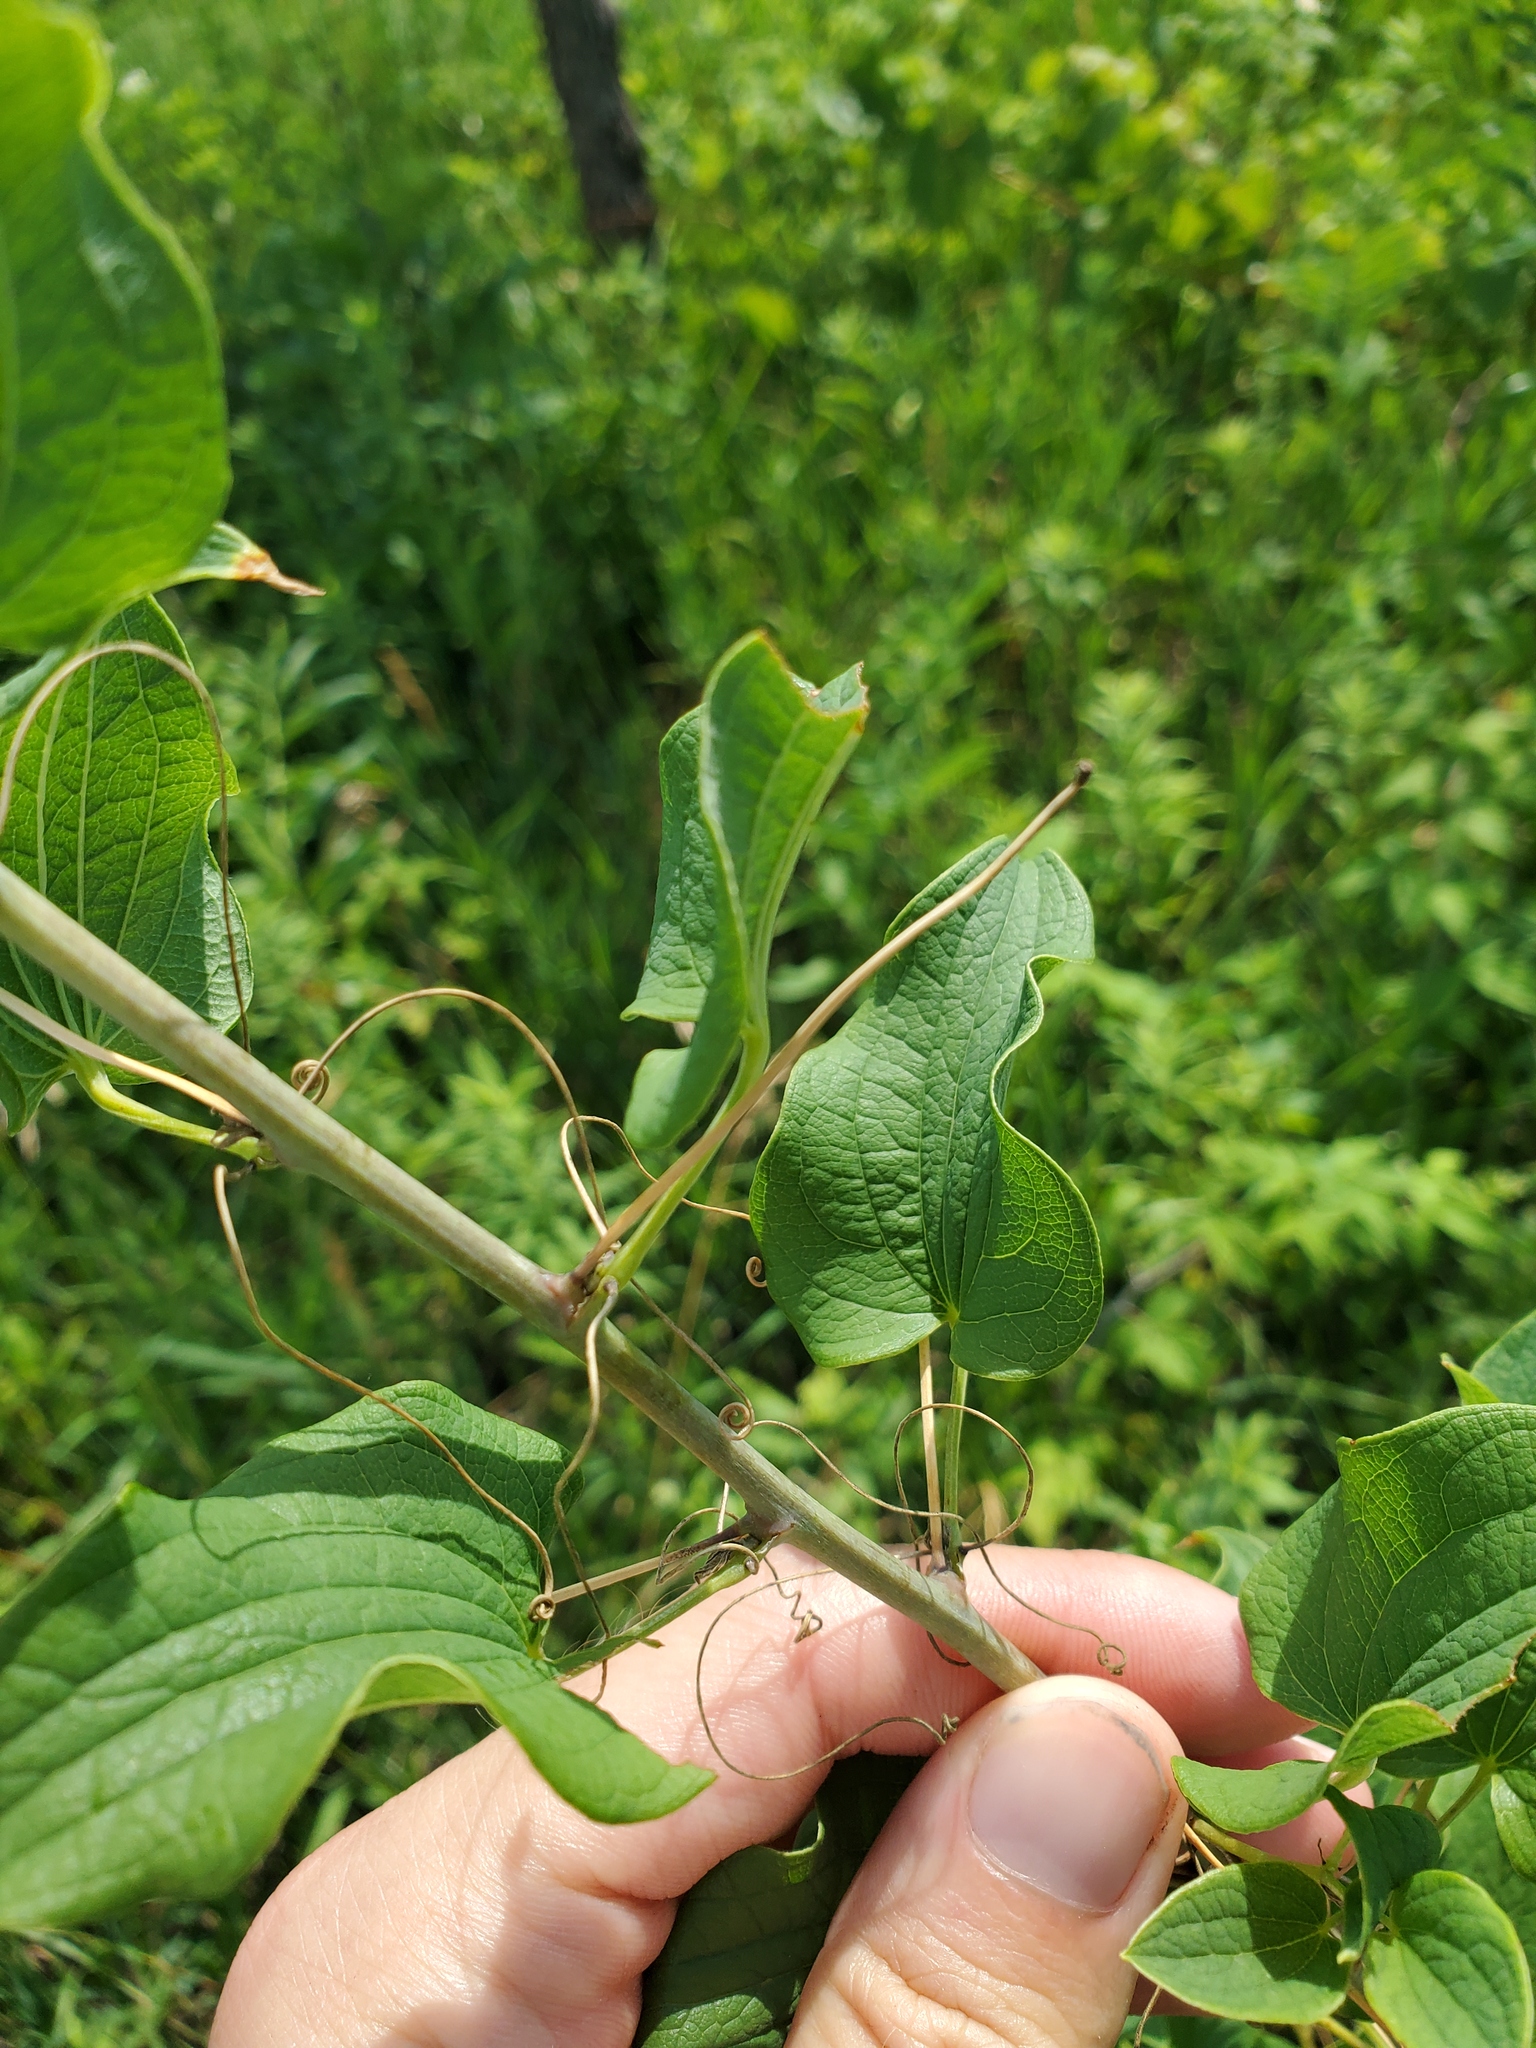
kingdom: Plantae
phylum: Tracheophyta
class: Liliopsida
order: Liliales
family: Smilacaceae
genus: Smilax
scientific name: Smilax lasioneura
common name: Blue ridge carrionflower
